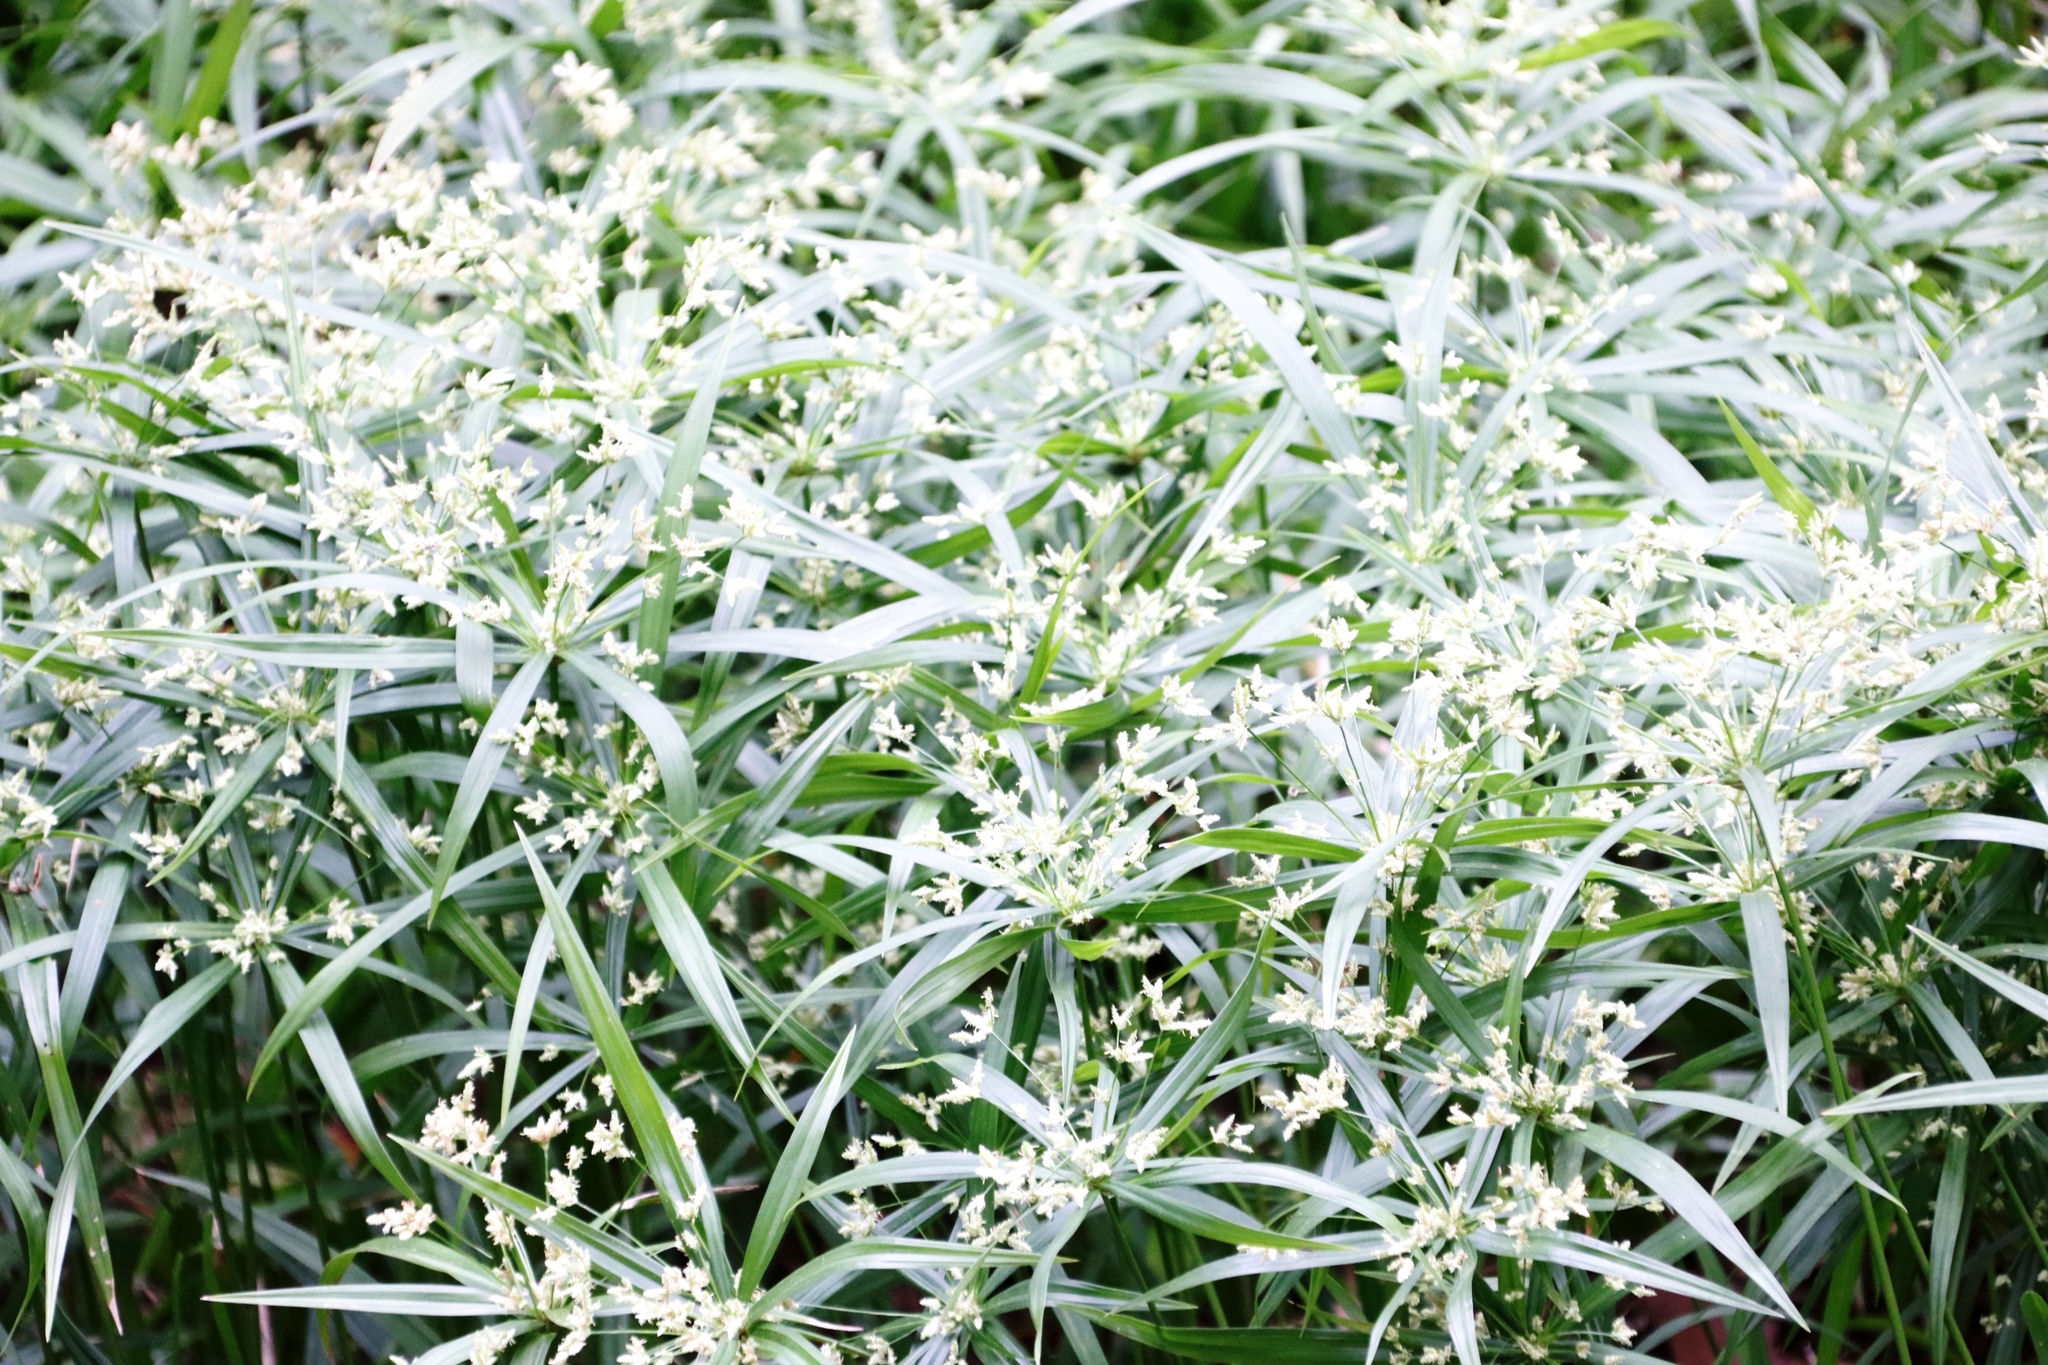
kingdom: Plantae
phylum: Tracheophyta
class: Liliopsida
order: Poales
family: Cyperaceae
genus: Cyperus
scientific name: Cyperus albostriatus
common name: Dwarf umbrella-grass
